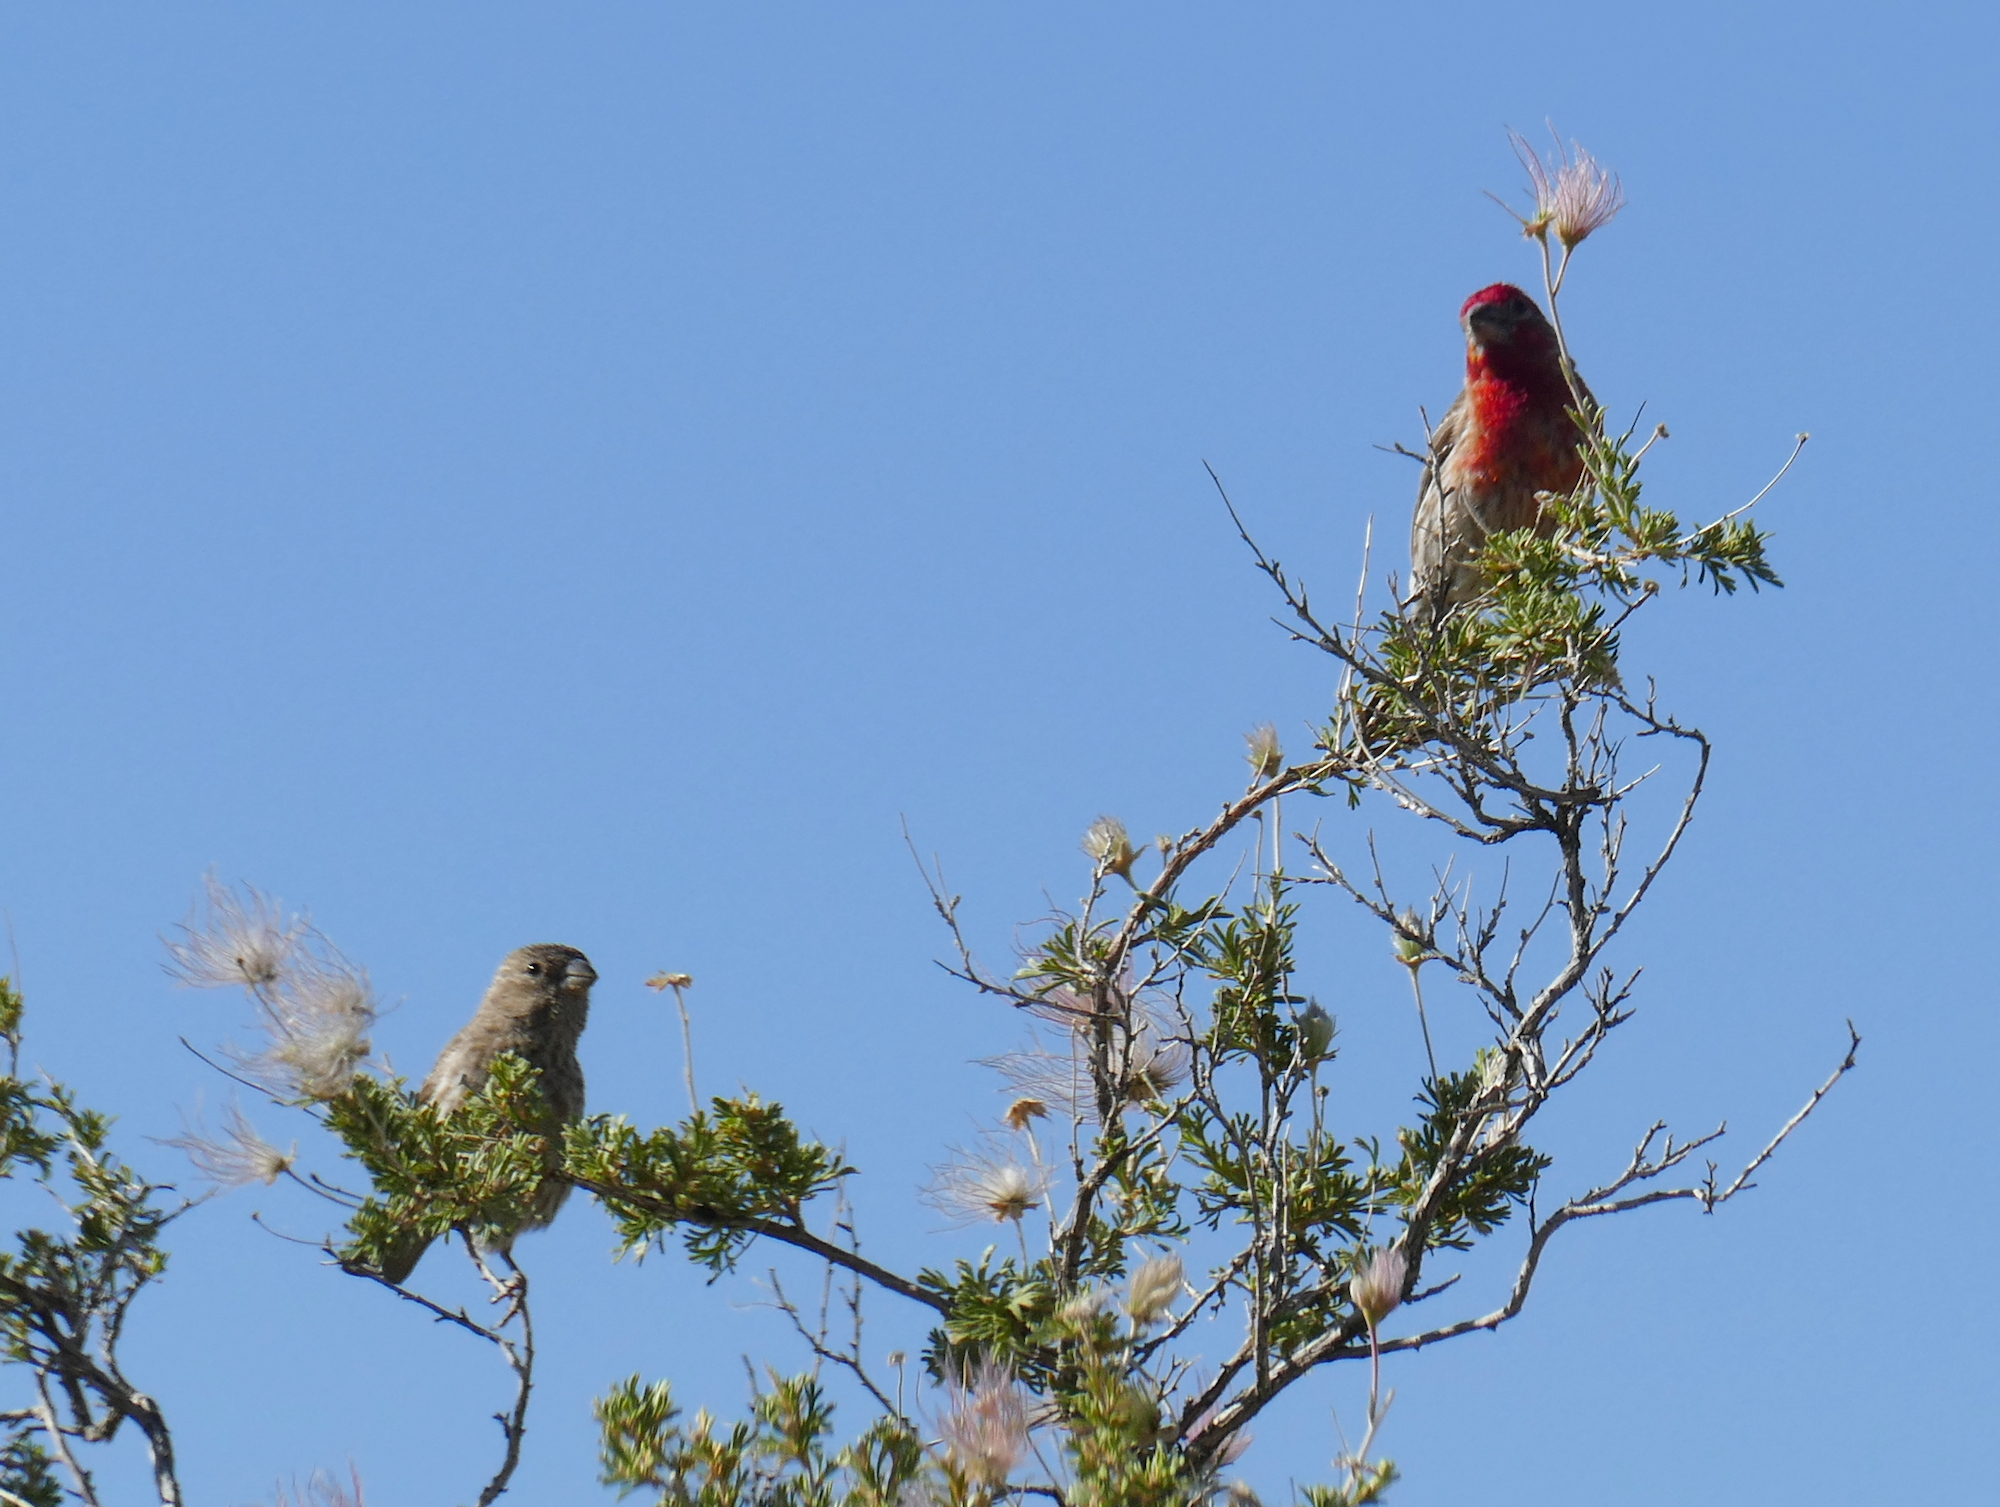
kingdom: Animalia
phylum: Chordata
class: Aves
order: Passeriformes
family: Fringillidae
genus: Haemorhous
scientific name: Haemorhous mexicanus
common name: House finch
